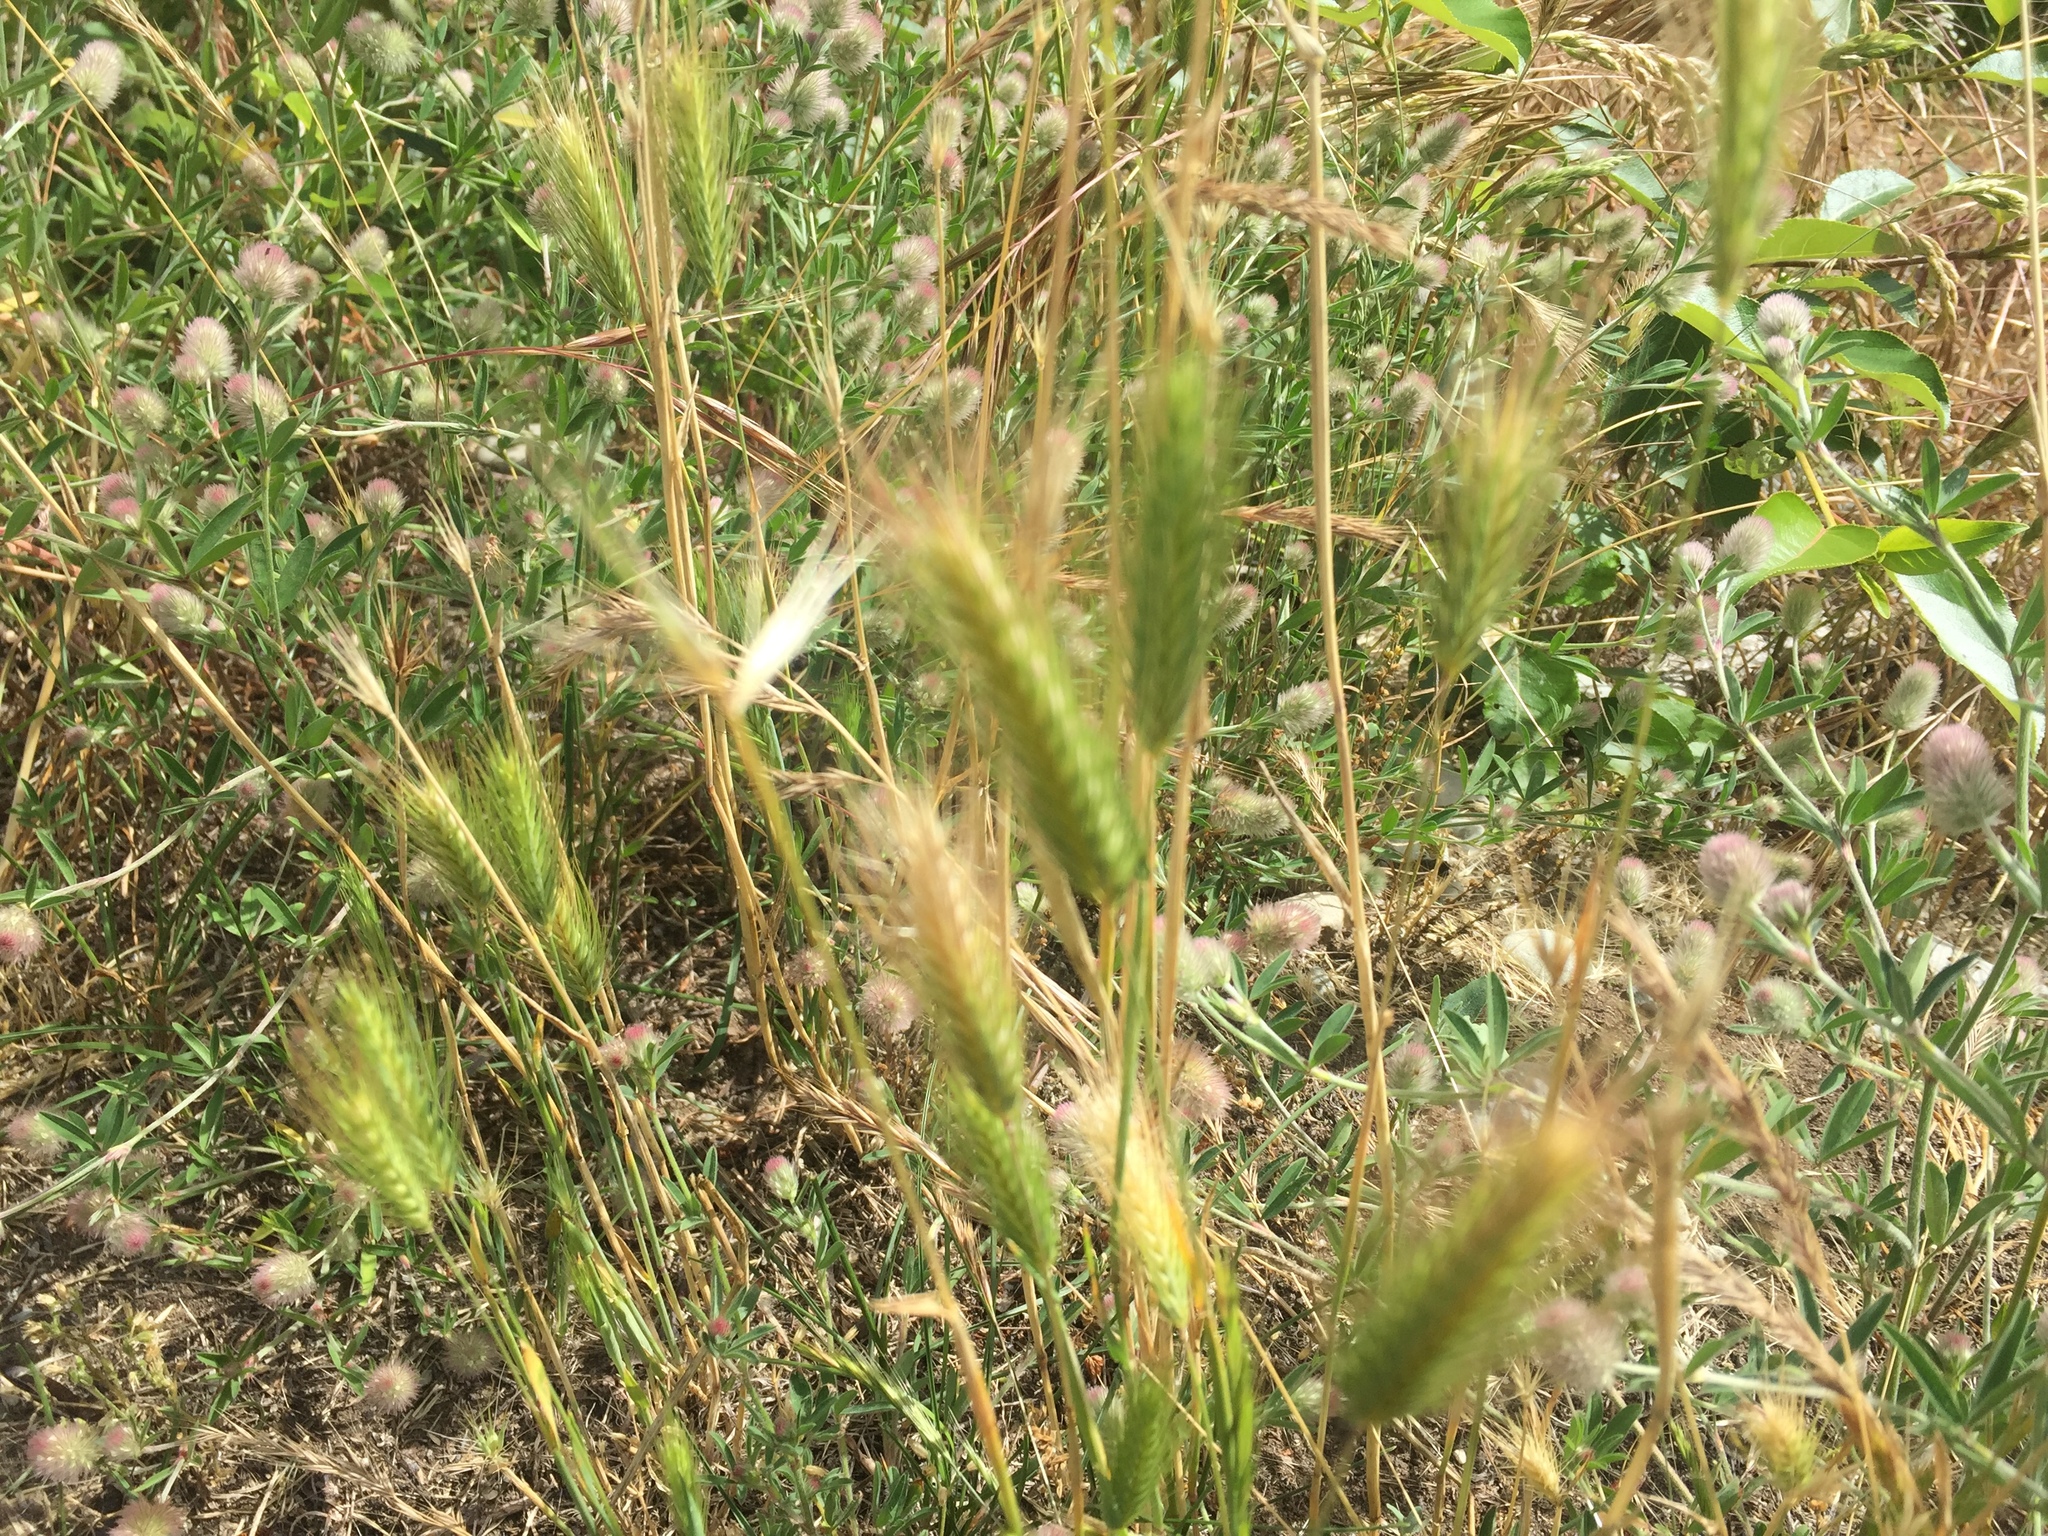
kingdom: Plantae
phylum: Tracheophyta
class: Liliopsida
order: Poales
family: Poaceae
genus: Hordeum
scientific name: Hordeum murinum
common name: Wall barley
